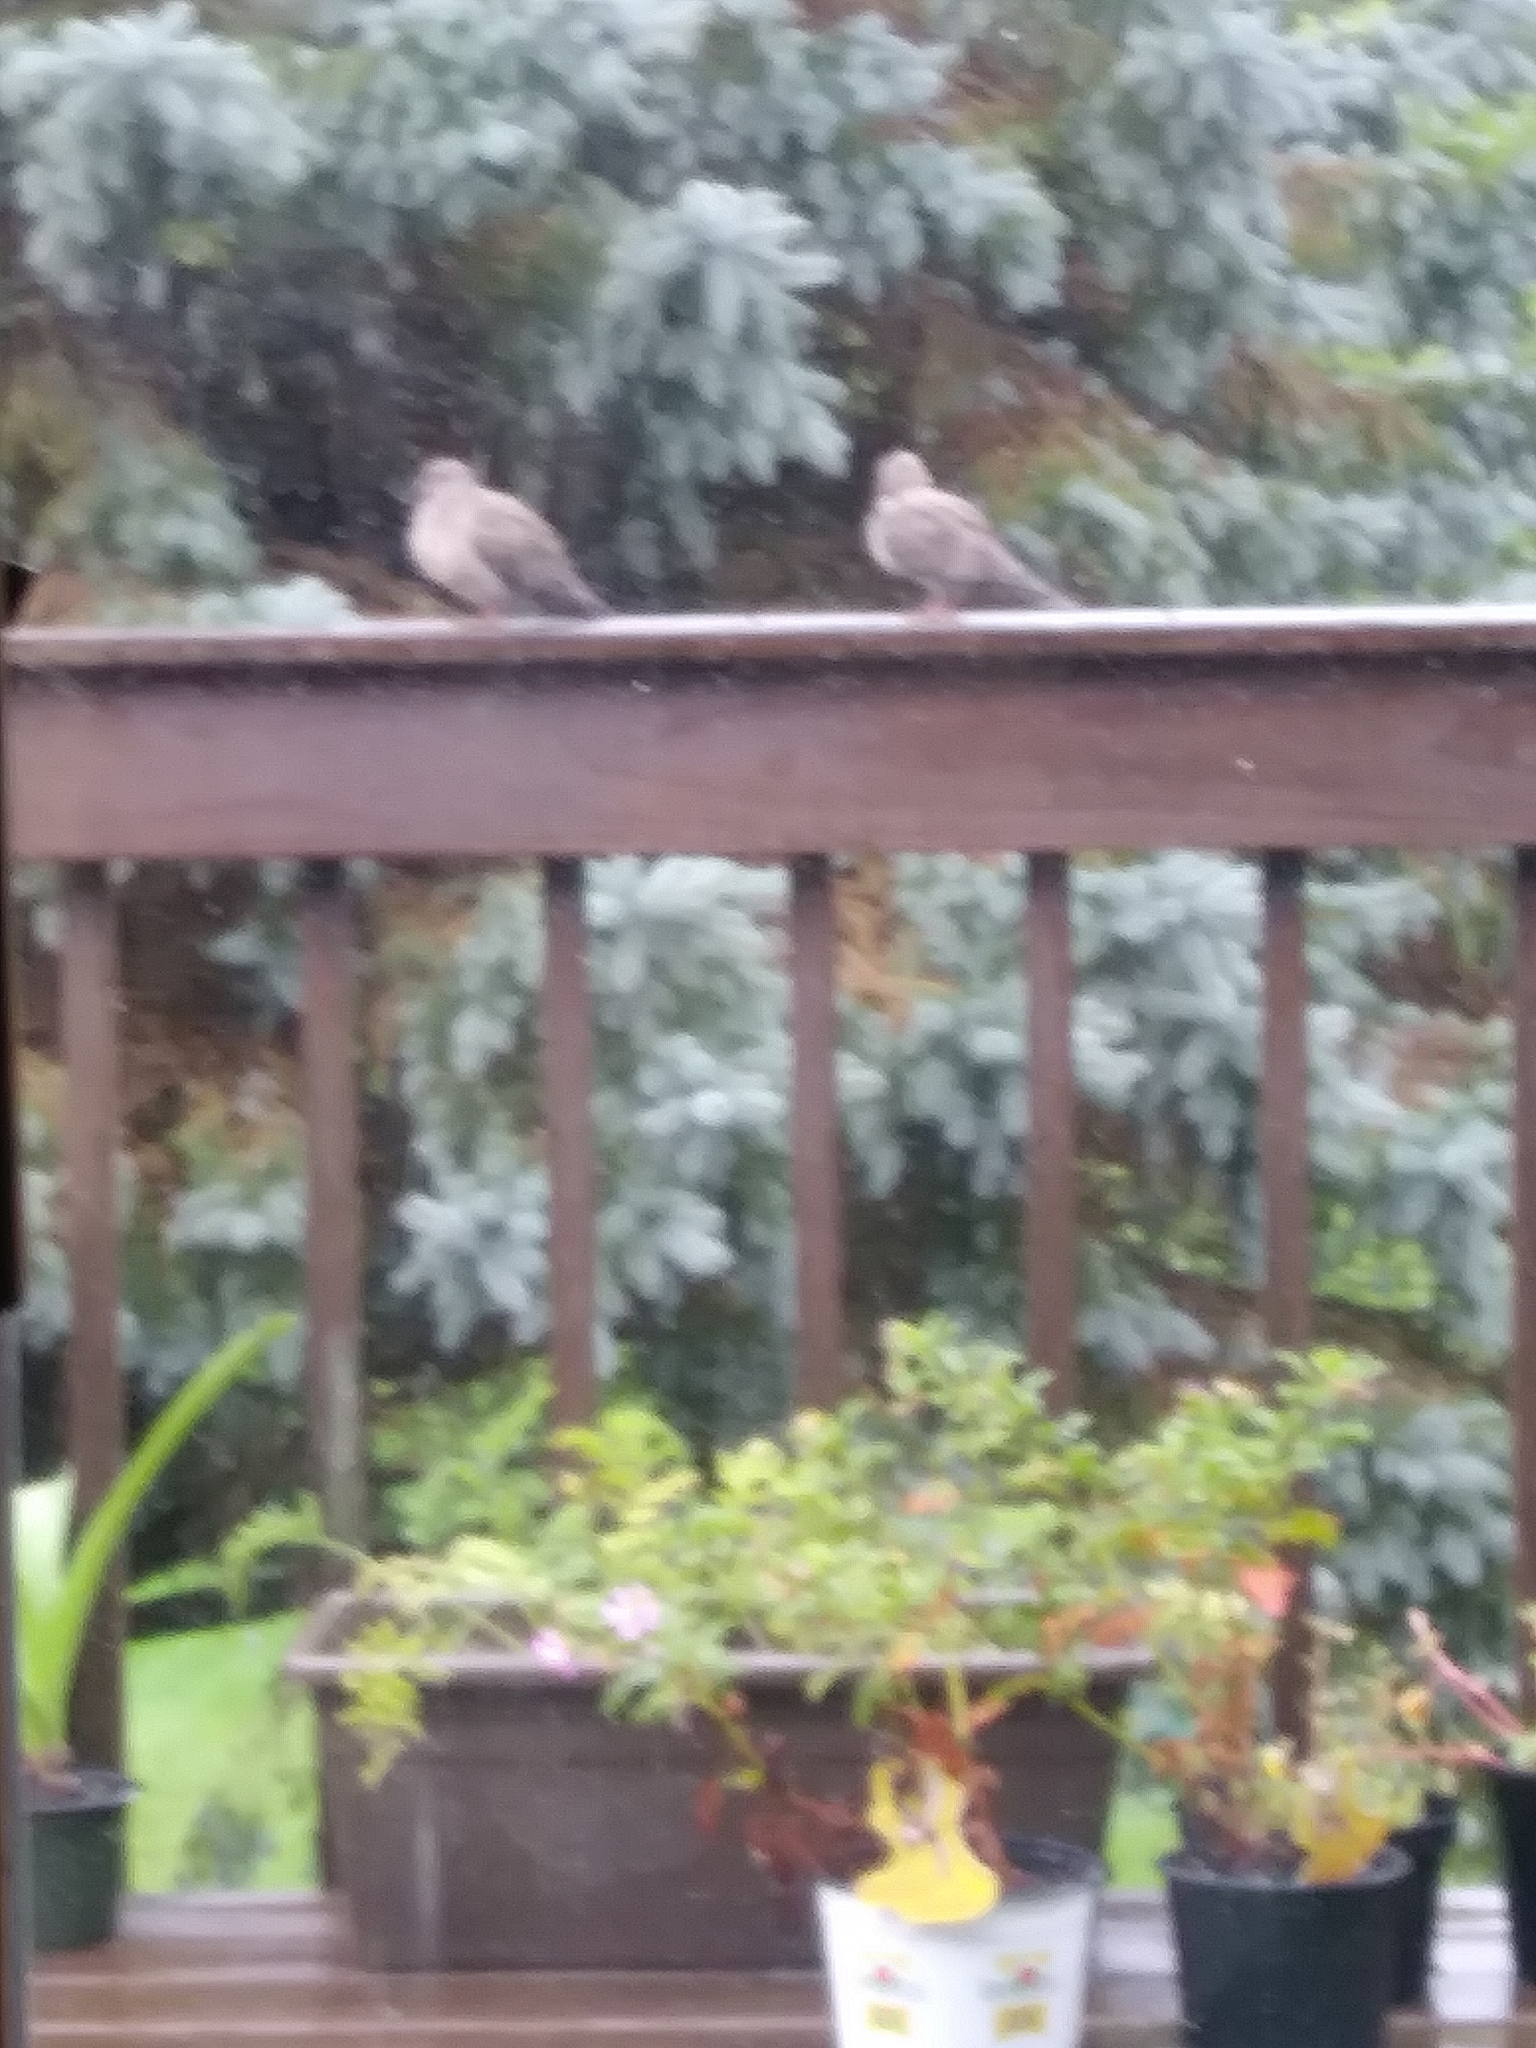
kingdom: Animalia
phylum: Chordata
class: Aves
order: Columbiformes
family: Columbidae
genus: Zenaida
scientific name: Zenaida macroura
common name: Mourning dove
